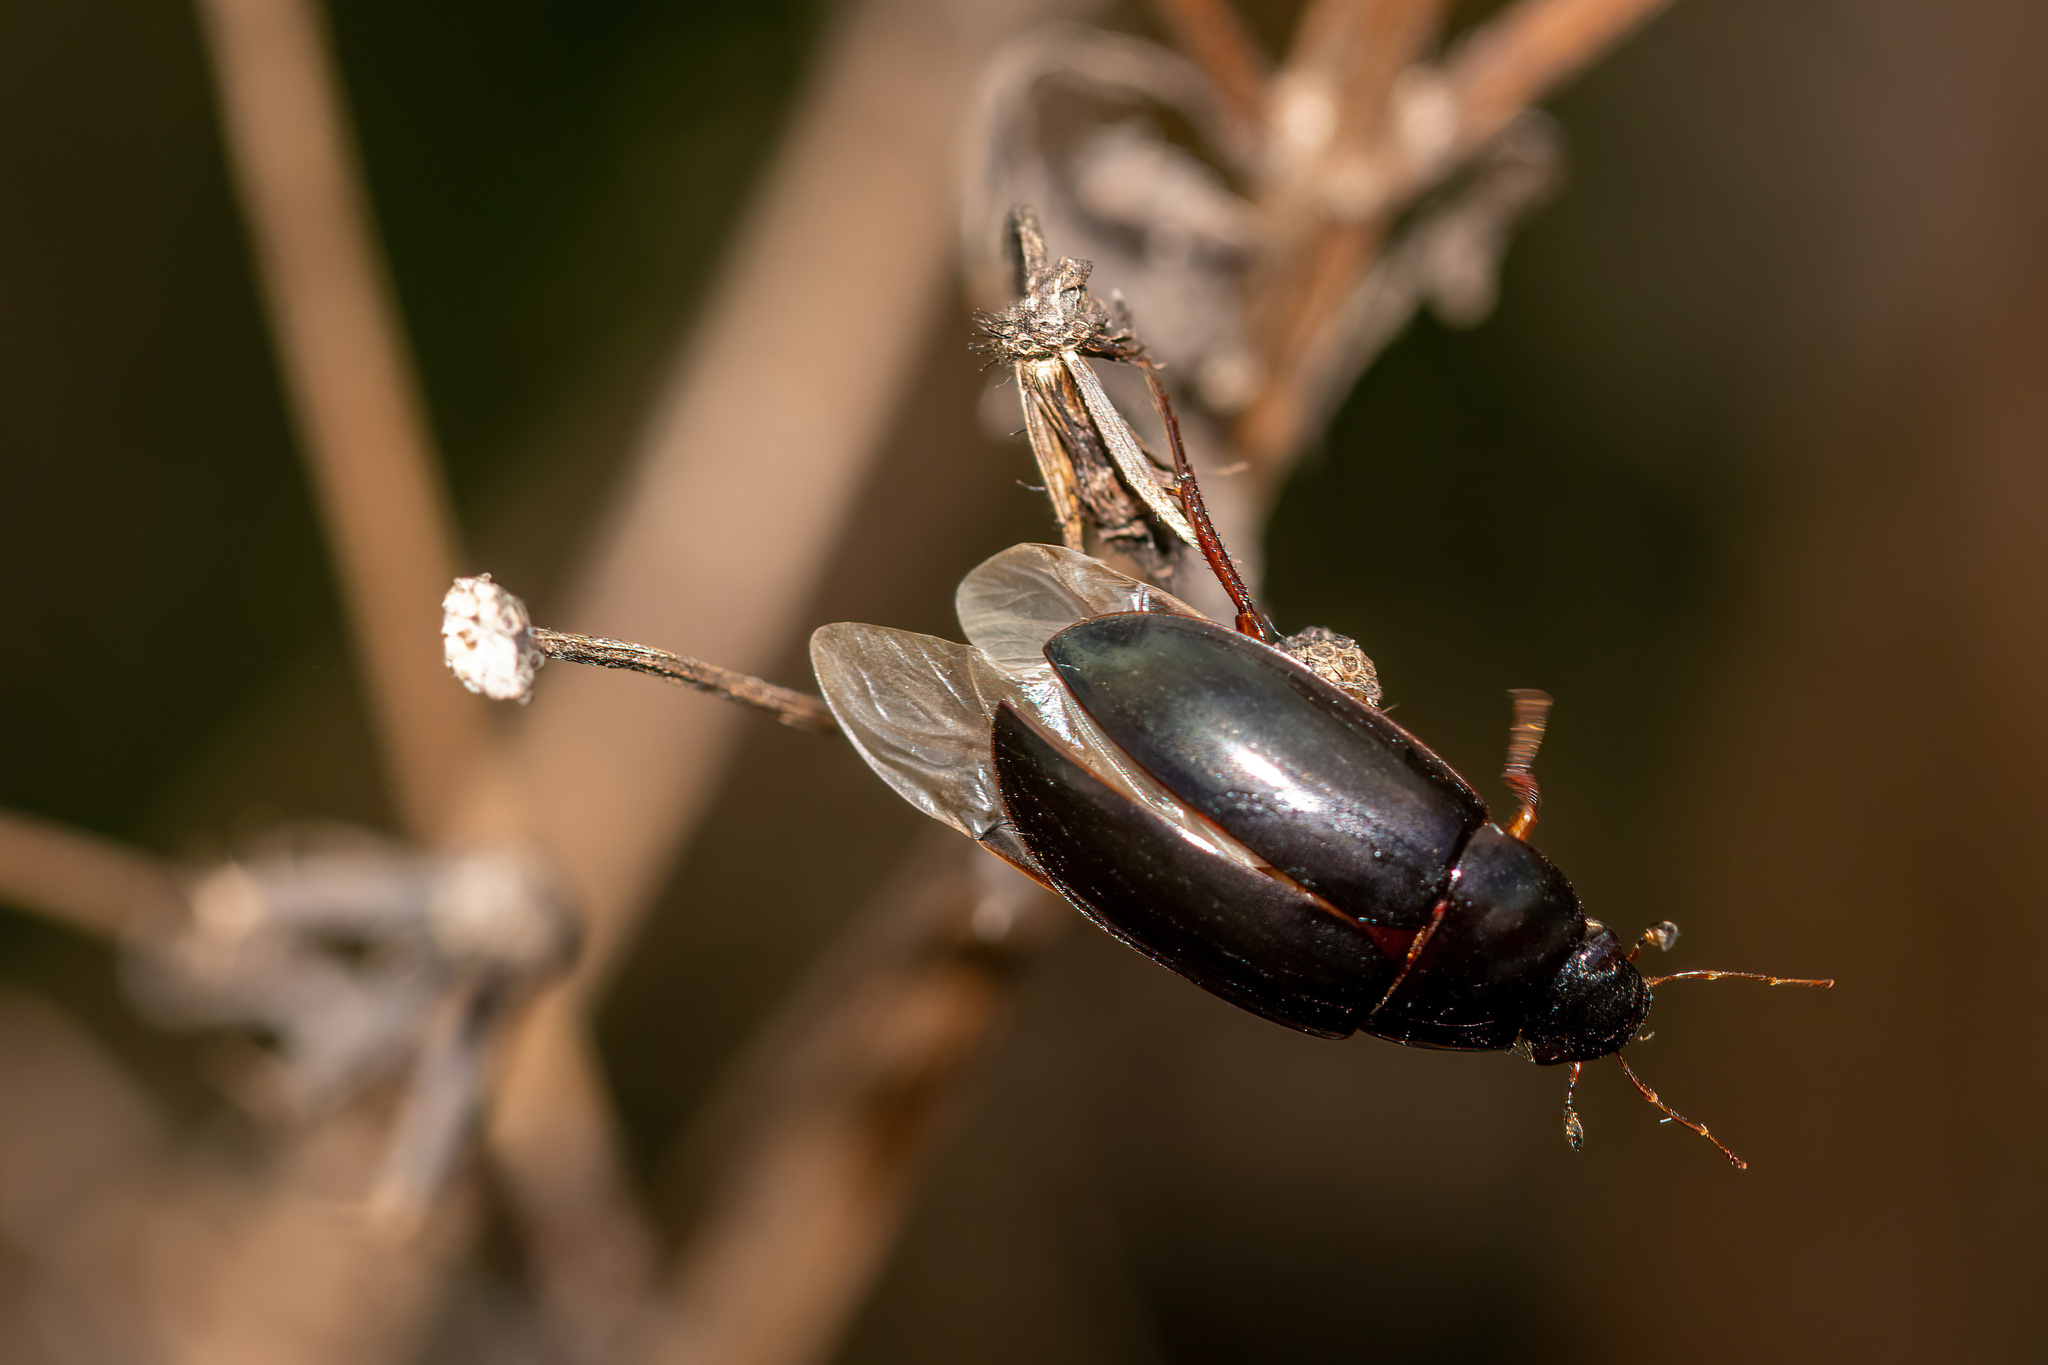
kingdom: Animalia
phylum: Arthropoda
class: Insecta
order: Coleoptera
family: Hydrophilidae
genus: Hydrobiomorpha
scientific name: Hydrobiomorpha casta
